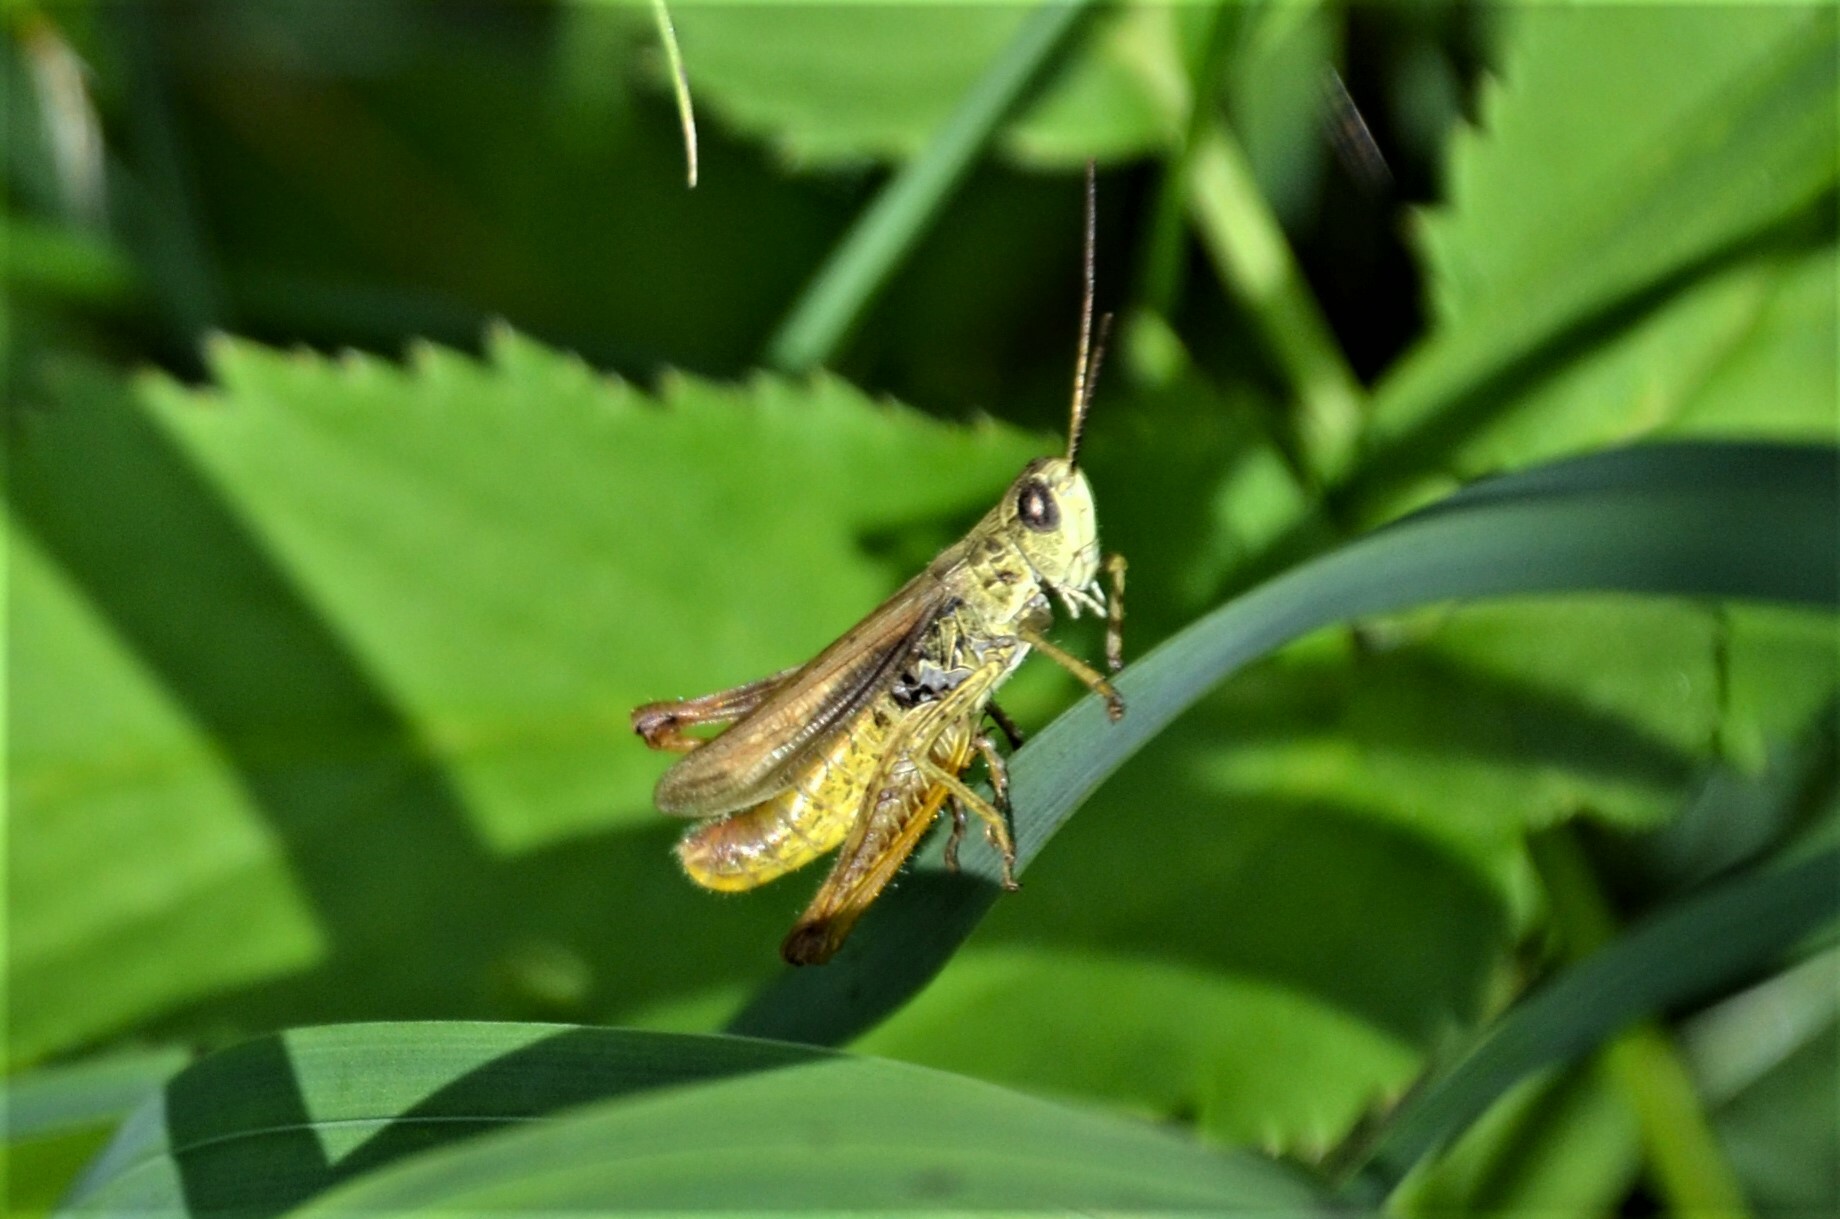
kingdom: Animalia
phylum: Arthropoda
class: Insecta
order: Orthoptera
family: Acrididae
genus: Chorthippus
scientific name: Chorthippus apricarius
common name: Upland field grasshopper
